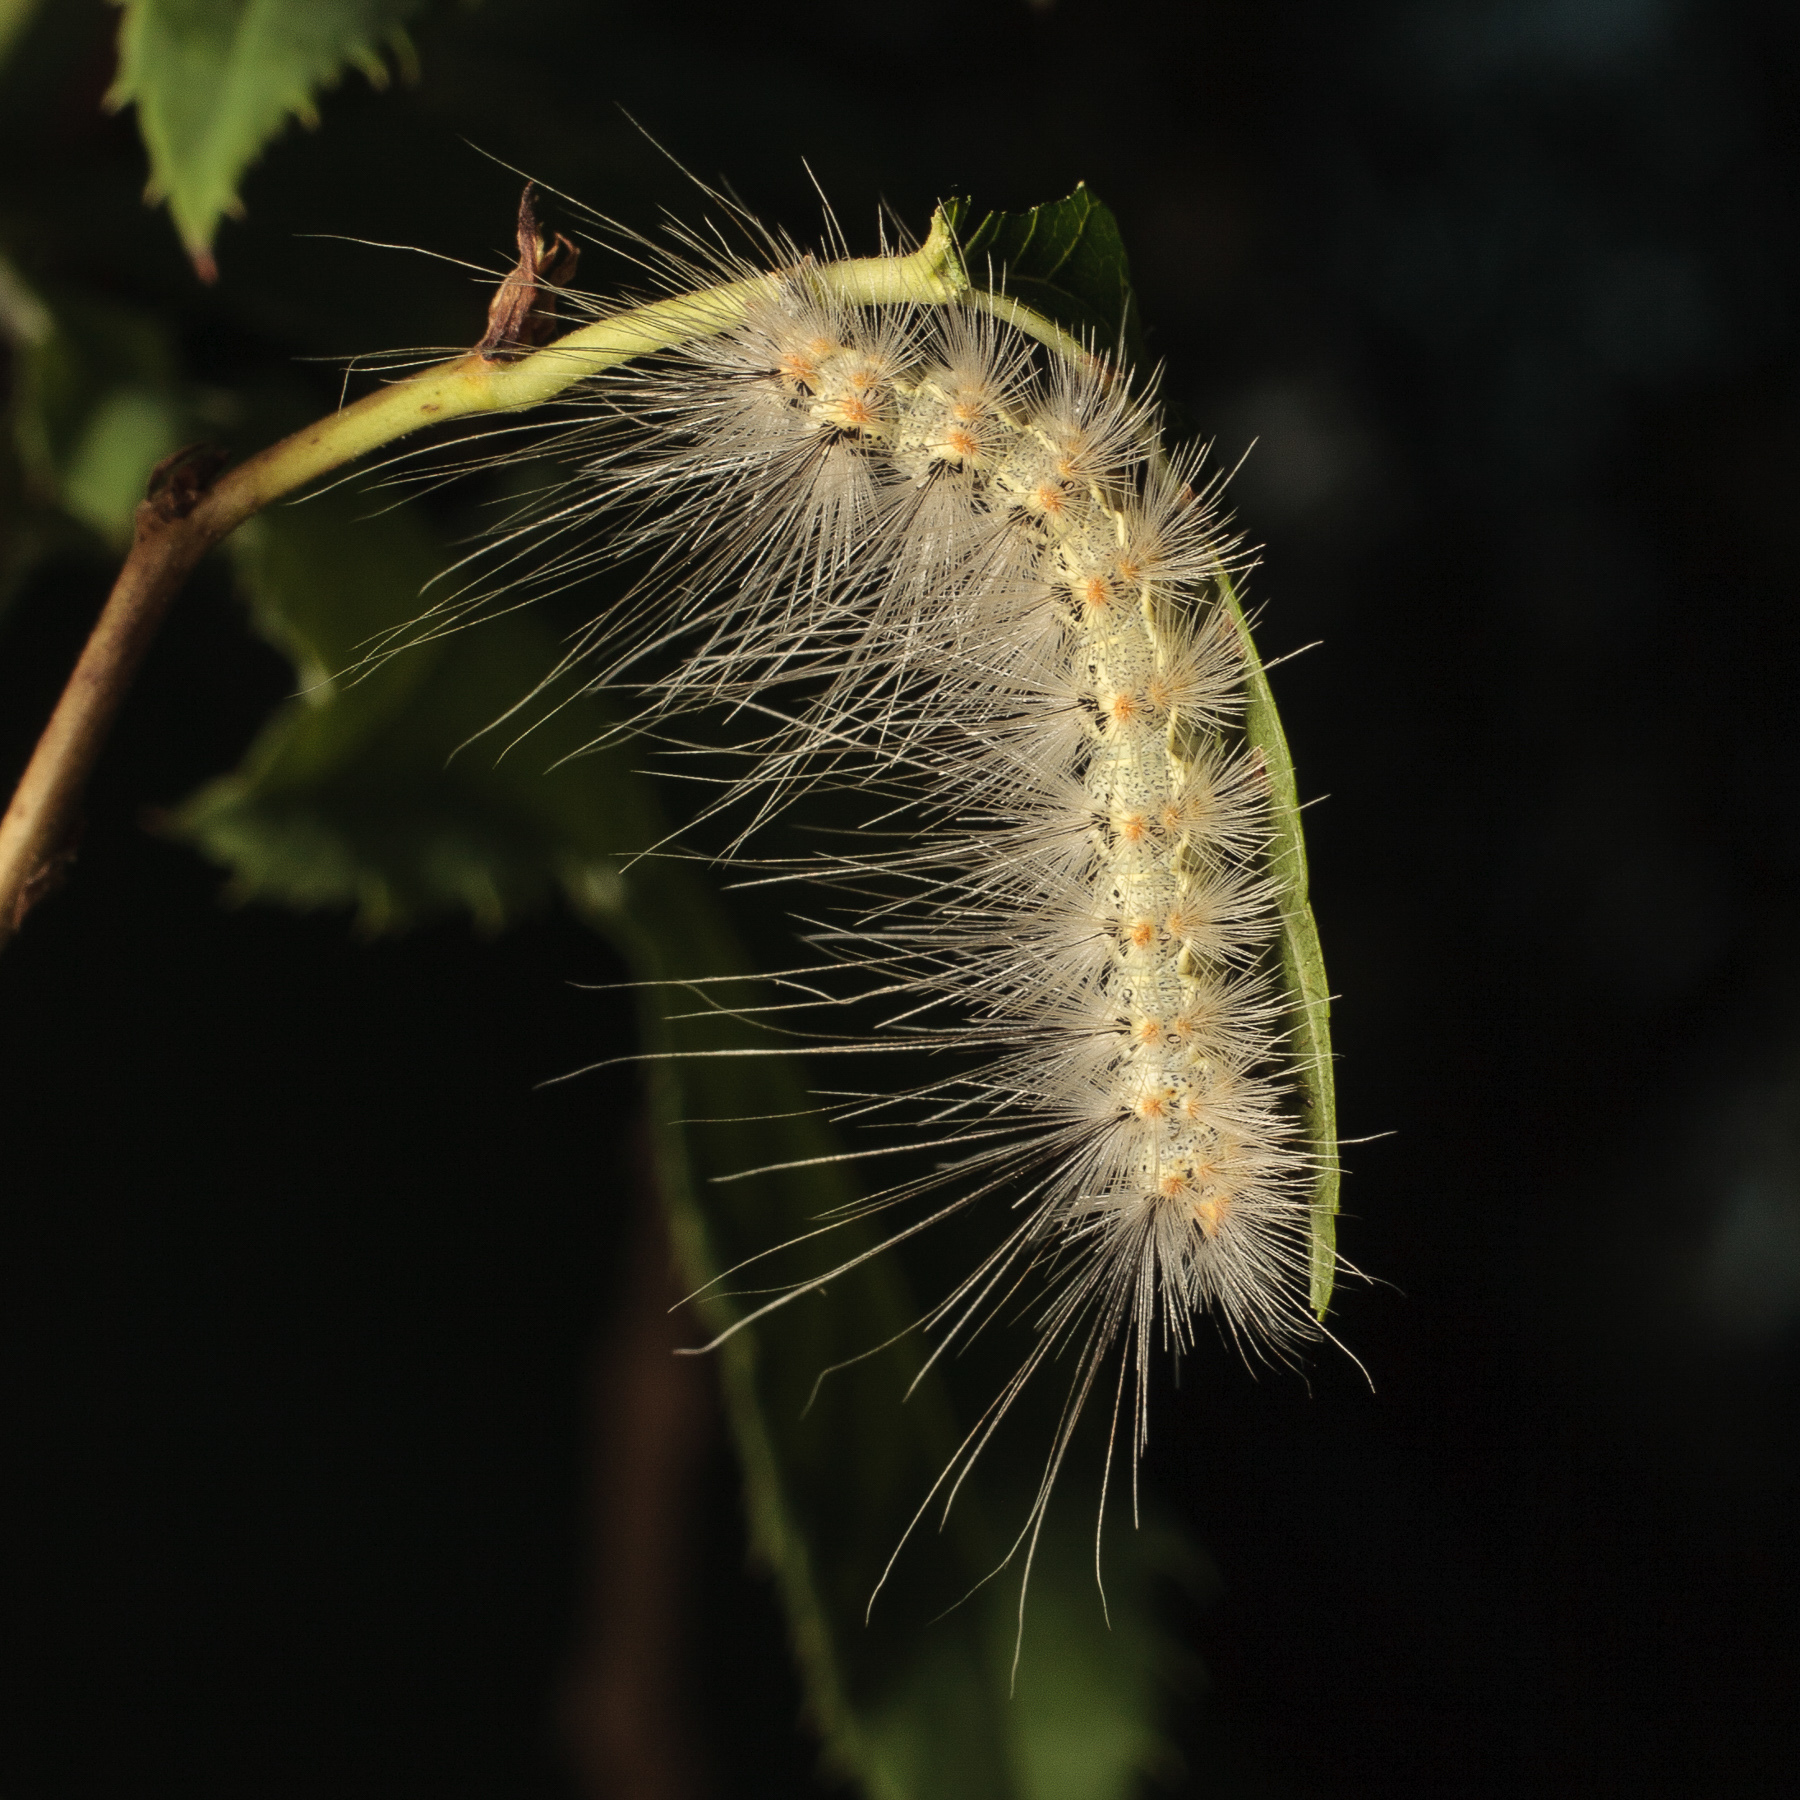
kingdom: Animalia
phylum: Arthropoda
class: Insecta
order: Lepidoptera
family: Erebidae
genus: Hyphantria
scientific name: Hyphantria cunea
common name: American white moth
